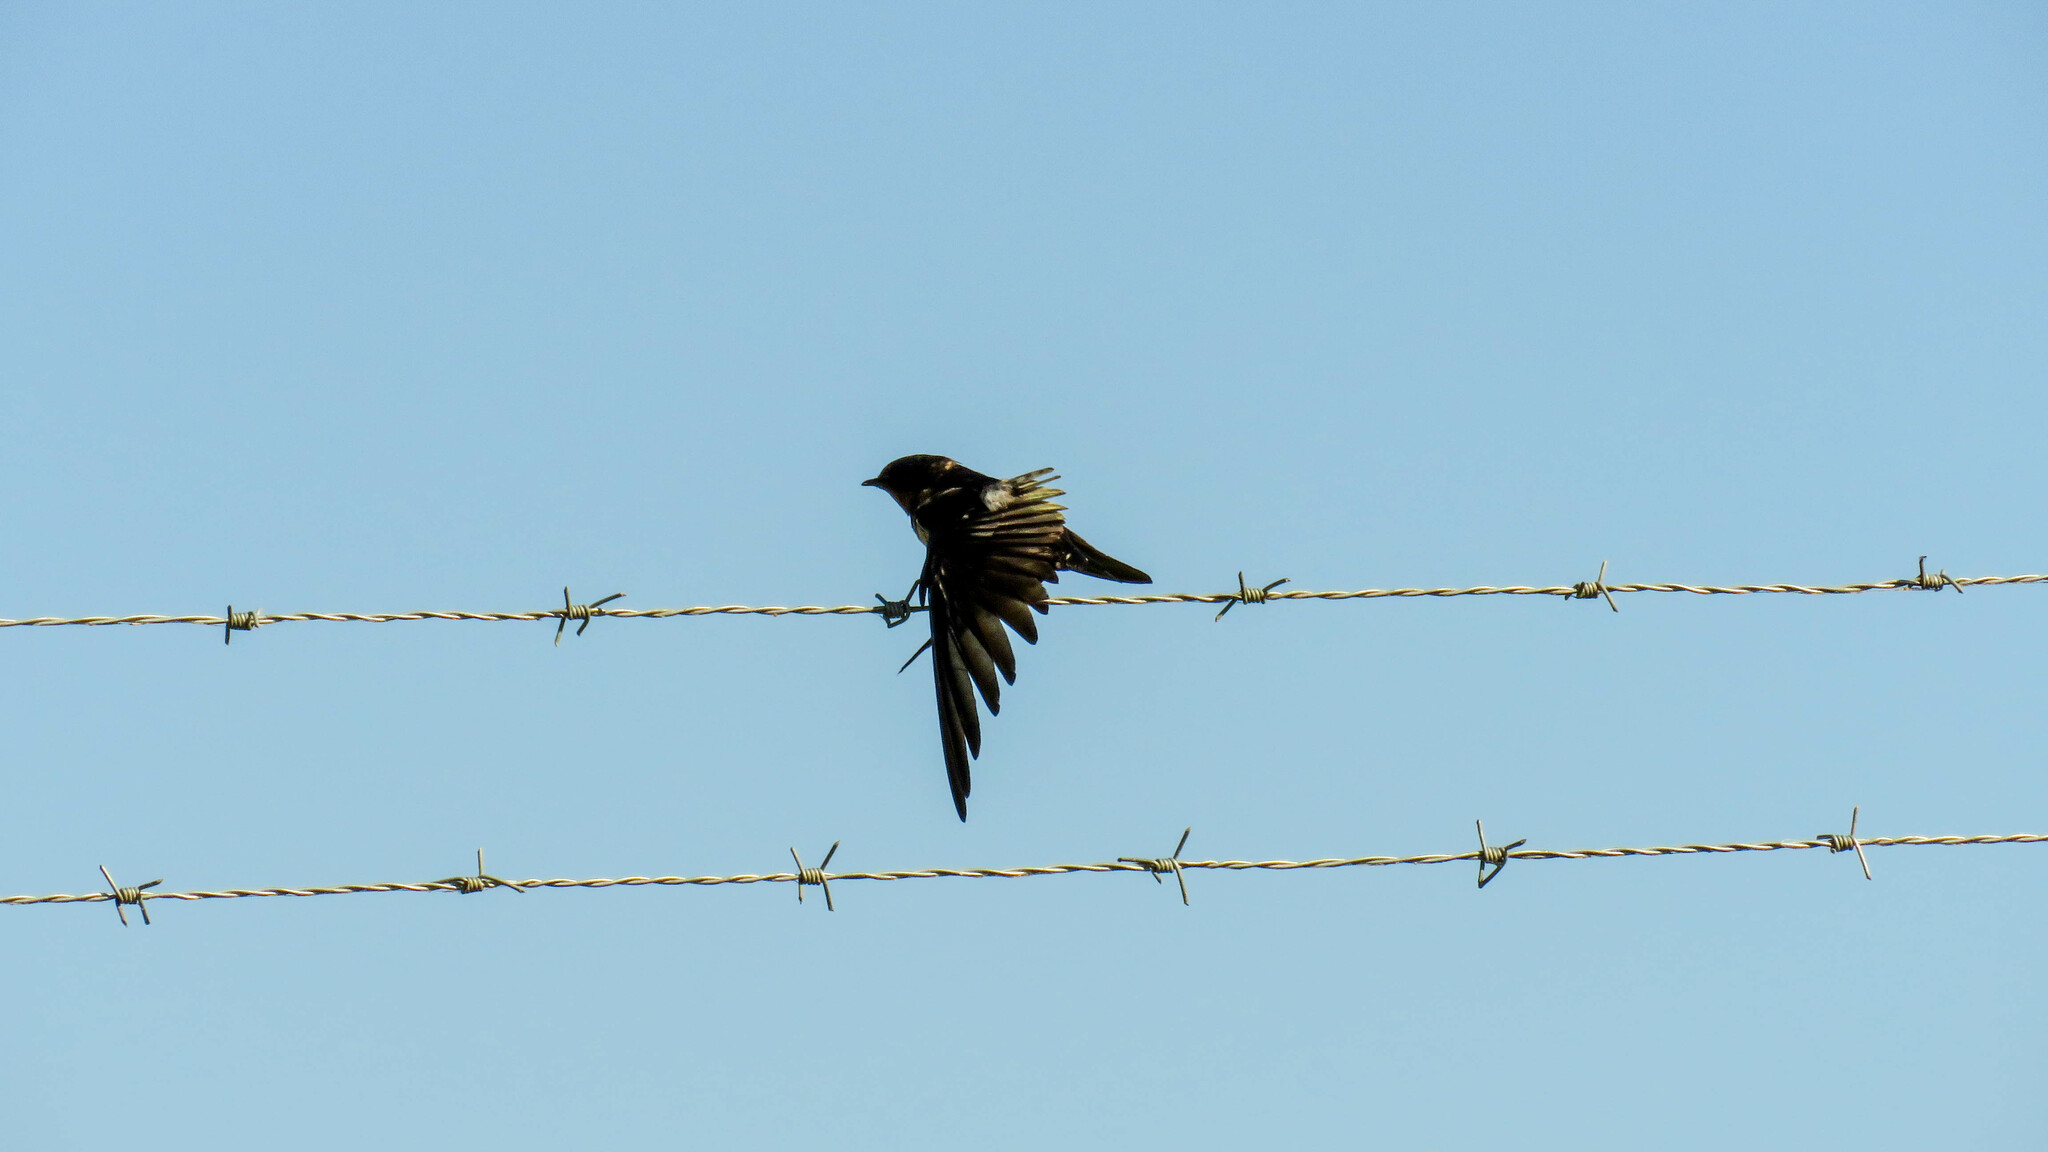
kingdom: Animalia
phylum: Chordata
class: Aves
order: Passeriformes
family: Hirundinidae
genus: Hirundo
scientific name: Hirundo rustica
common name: Barn swallow
